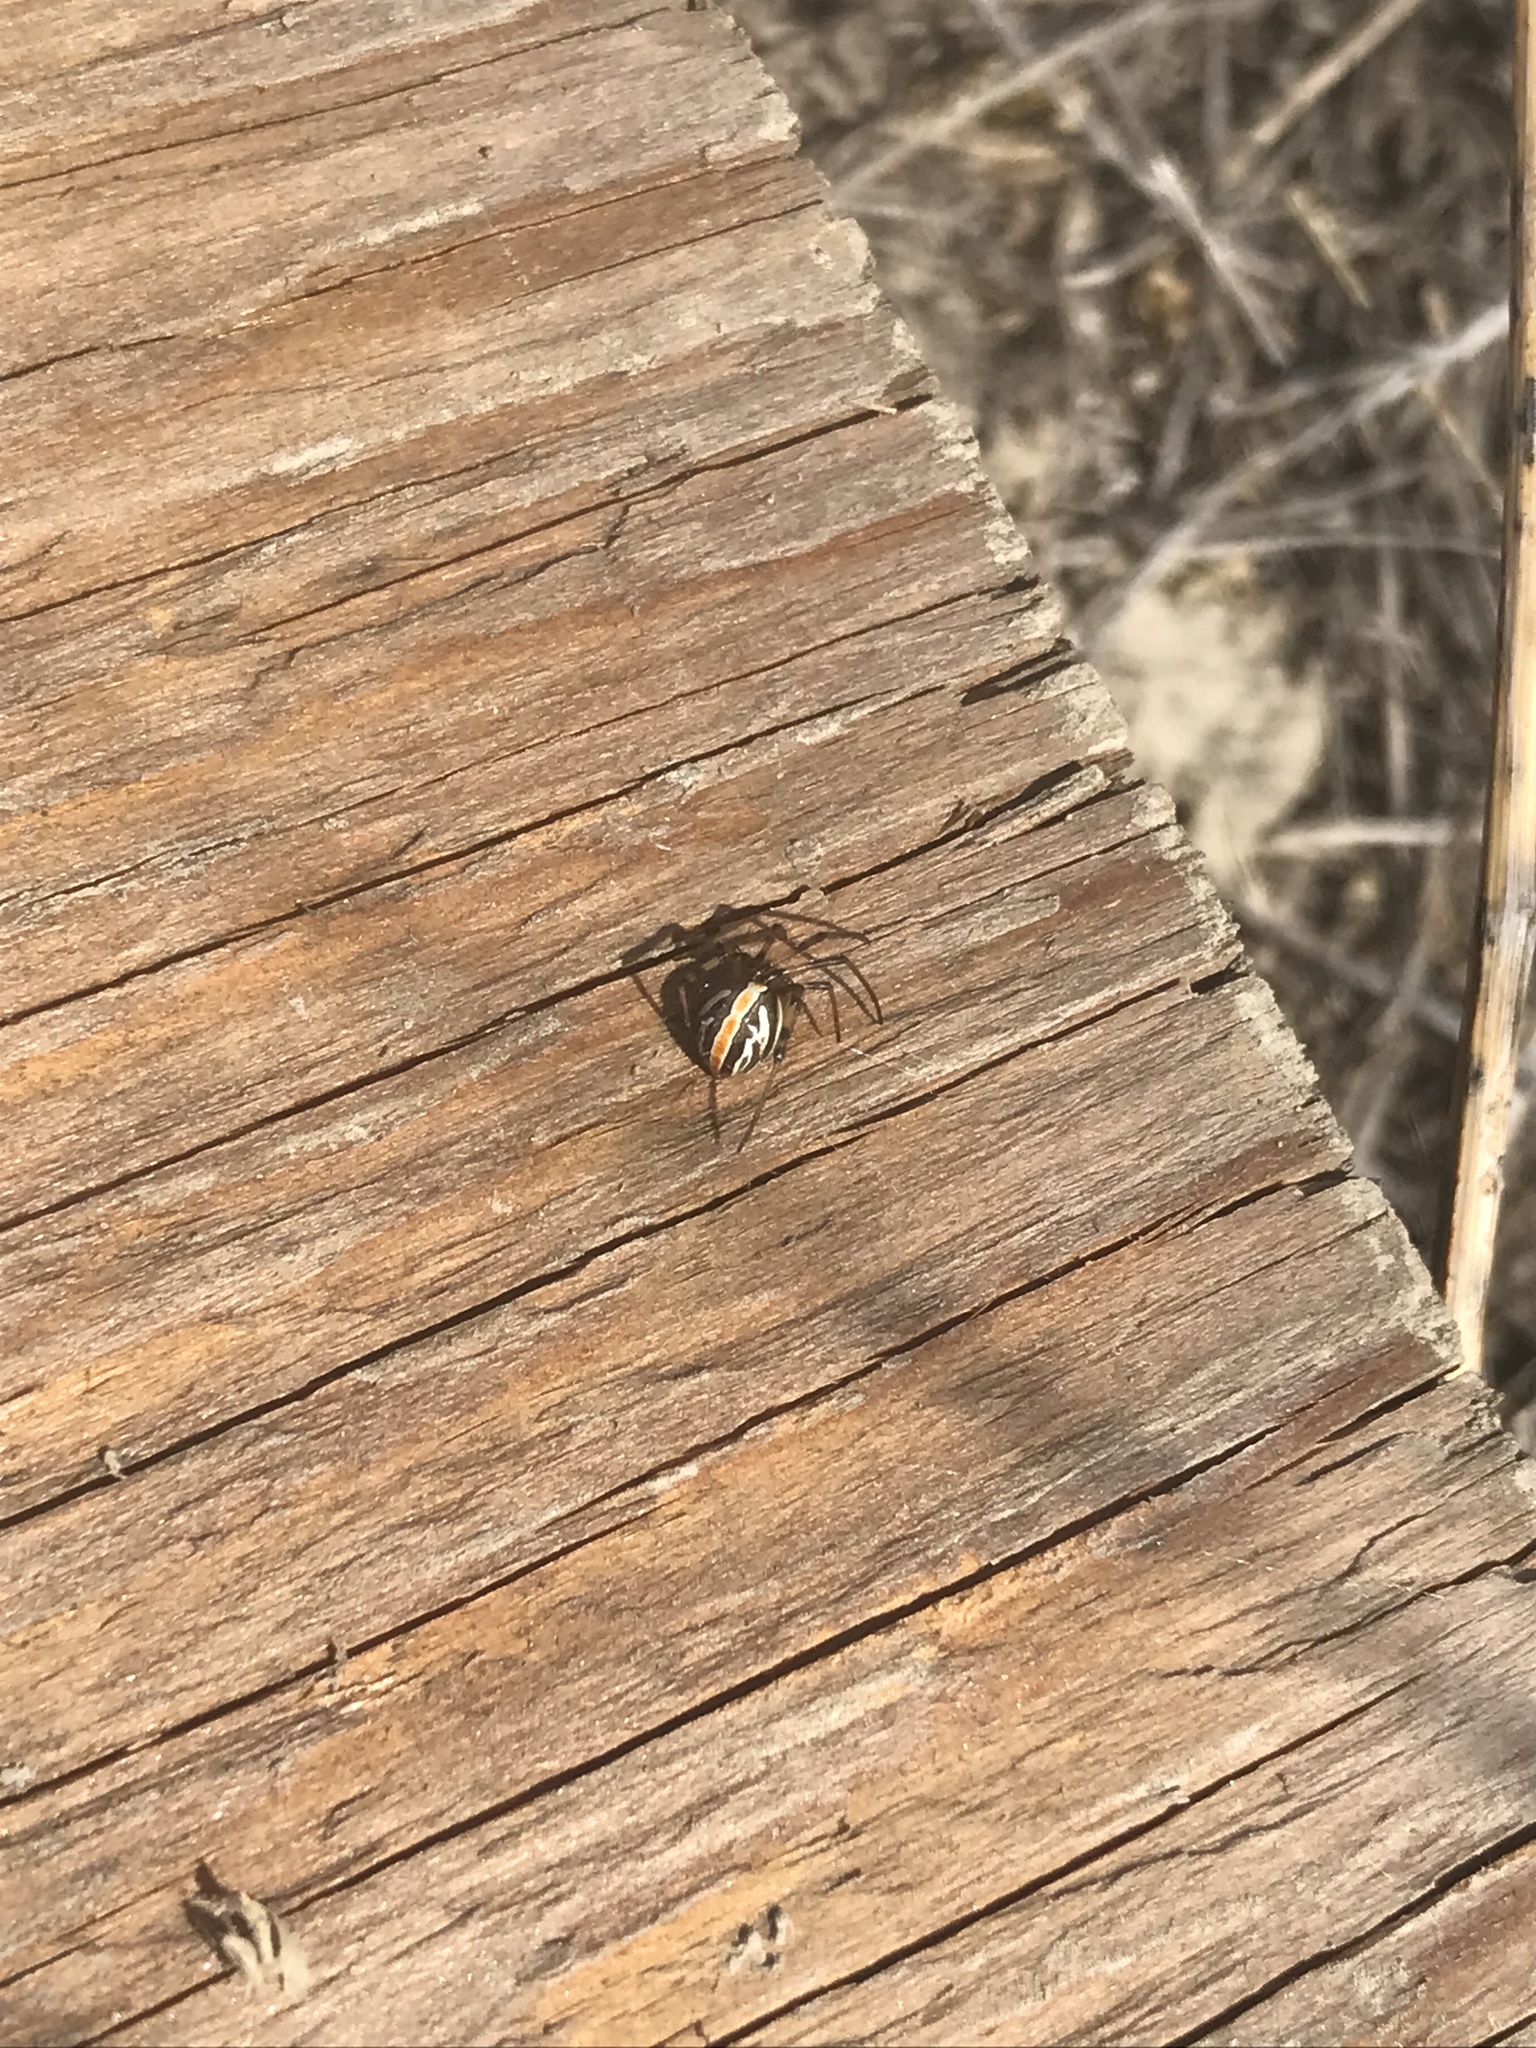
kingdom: Animalia
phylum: Arthropoda
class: Arachnida
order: Araneae
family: Theridiidae
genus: Latrodectus
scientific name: Latrodectus hesperus
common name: Western black widow
